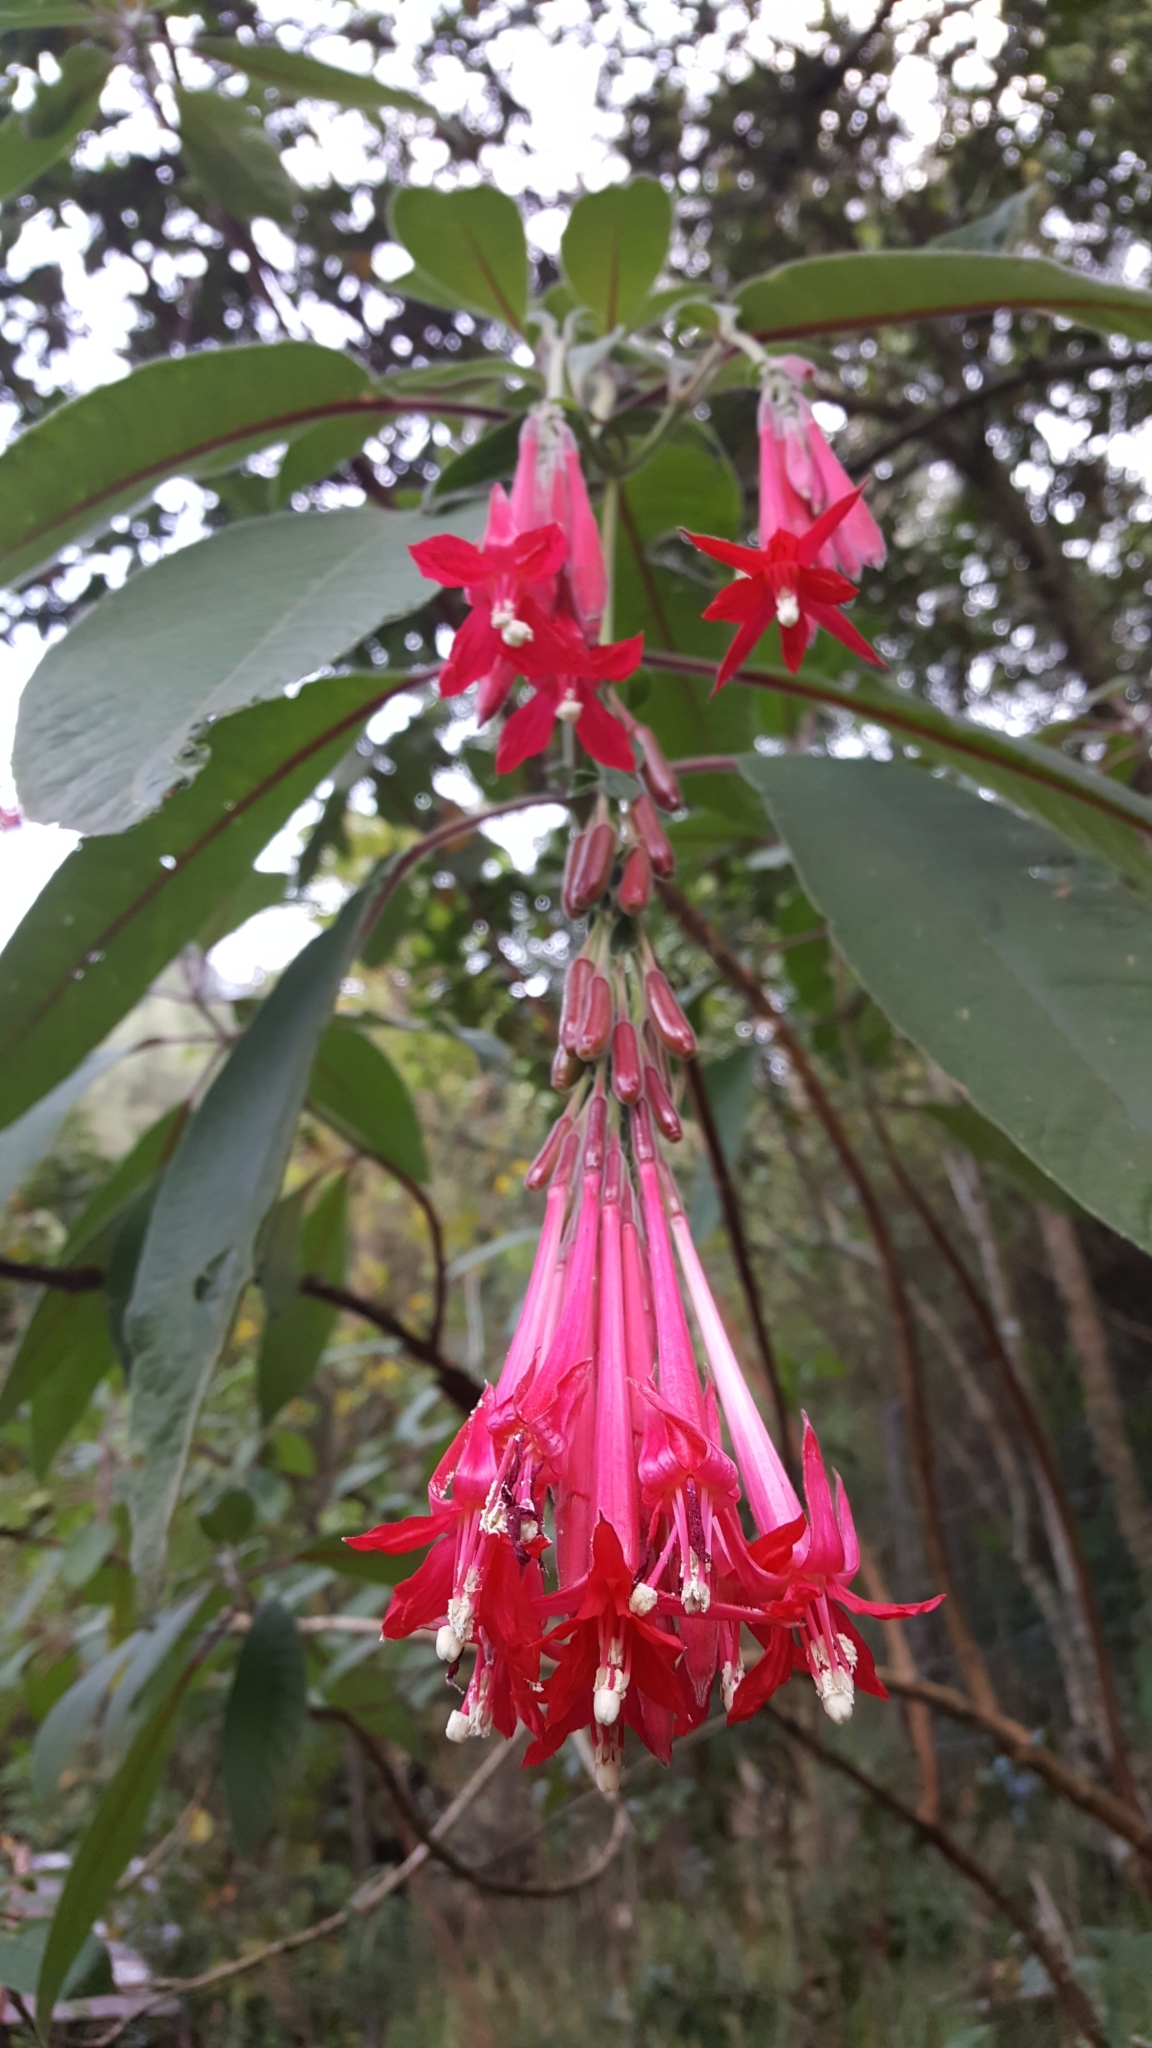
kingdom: Plantae
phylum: Tracheophyta
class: Magnoliopsida
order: Myrtales
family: Onagraceae
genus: Fuchsia
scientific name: Fuchsia boliviana
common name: Bolivian fuchsia
